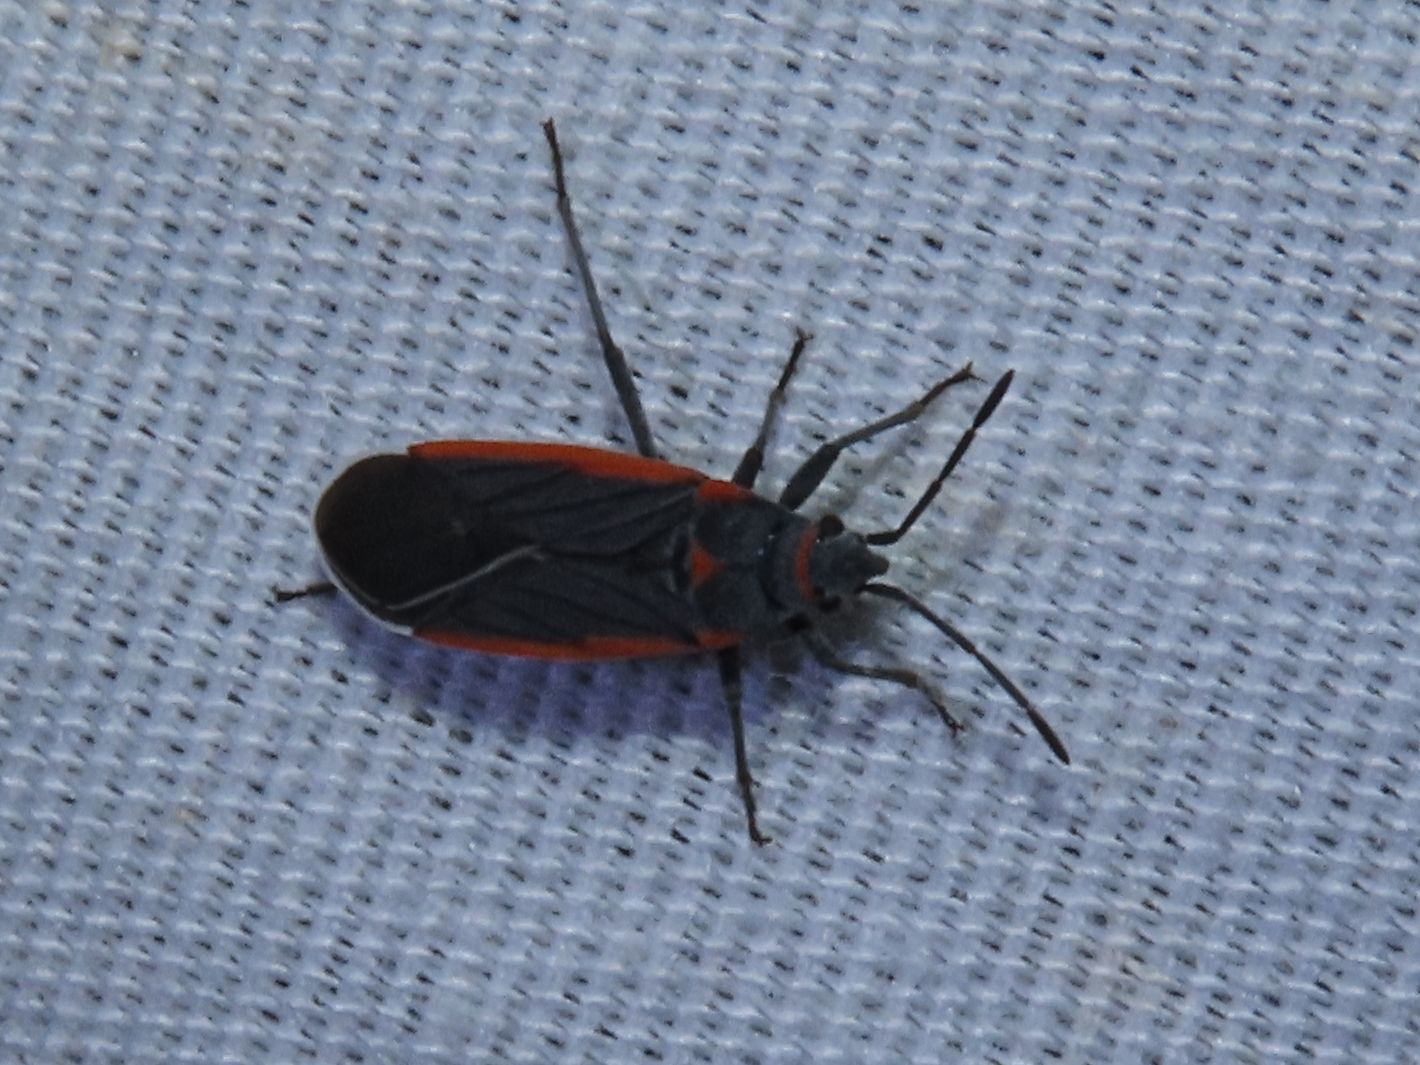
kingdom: Animalia
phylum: Arthropoda
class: Insecta
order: Hemiptera
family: Lygaeidae
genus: Melacoryphus
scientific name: Melacoryphus lateralis
